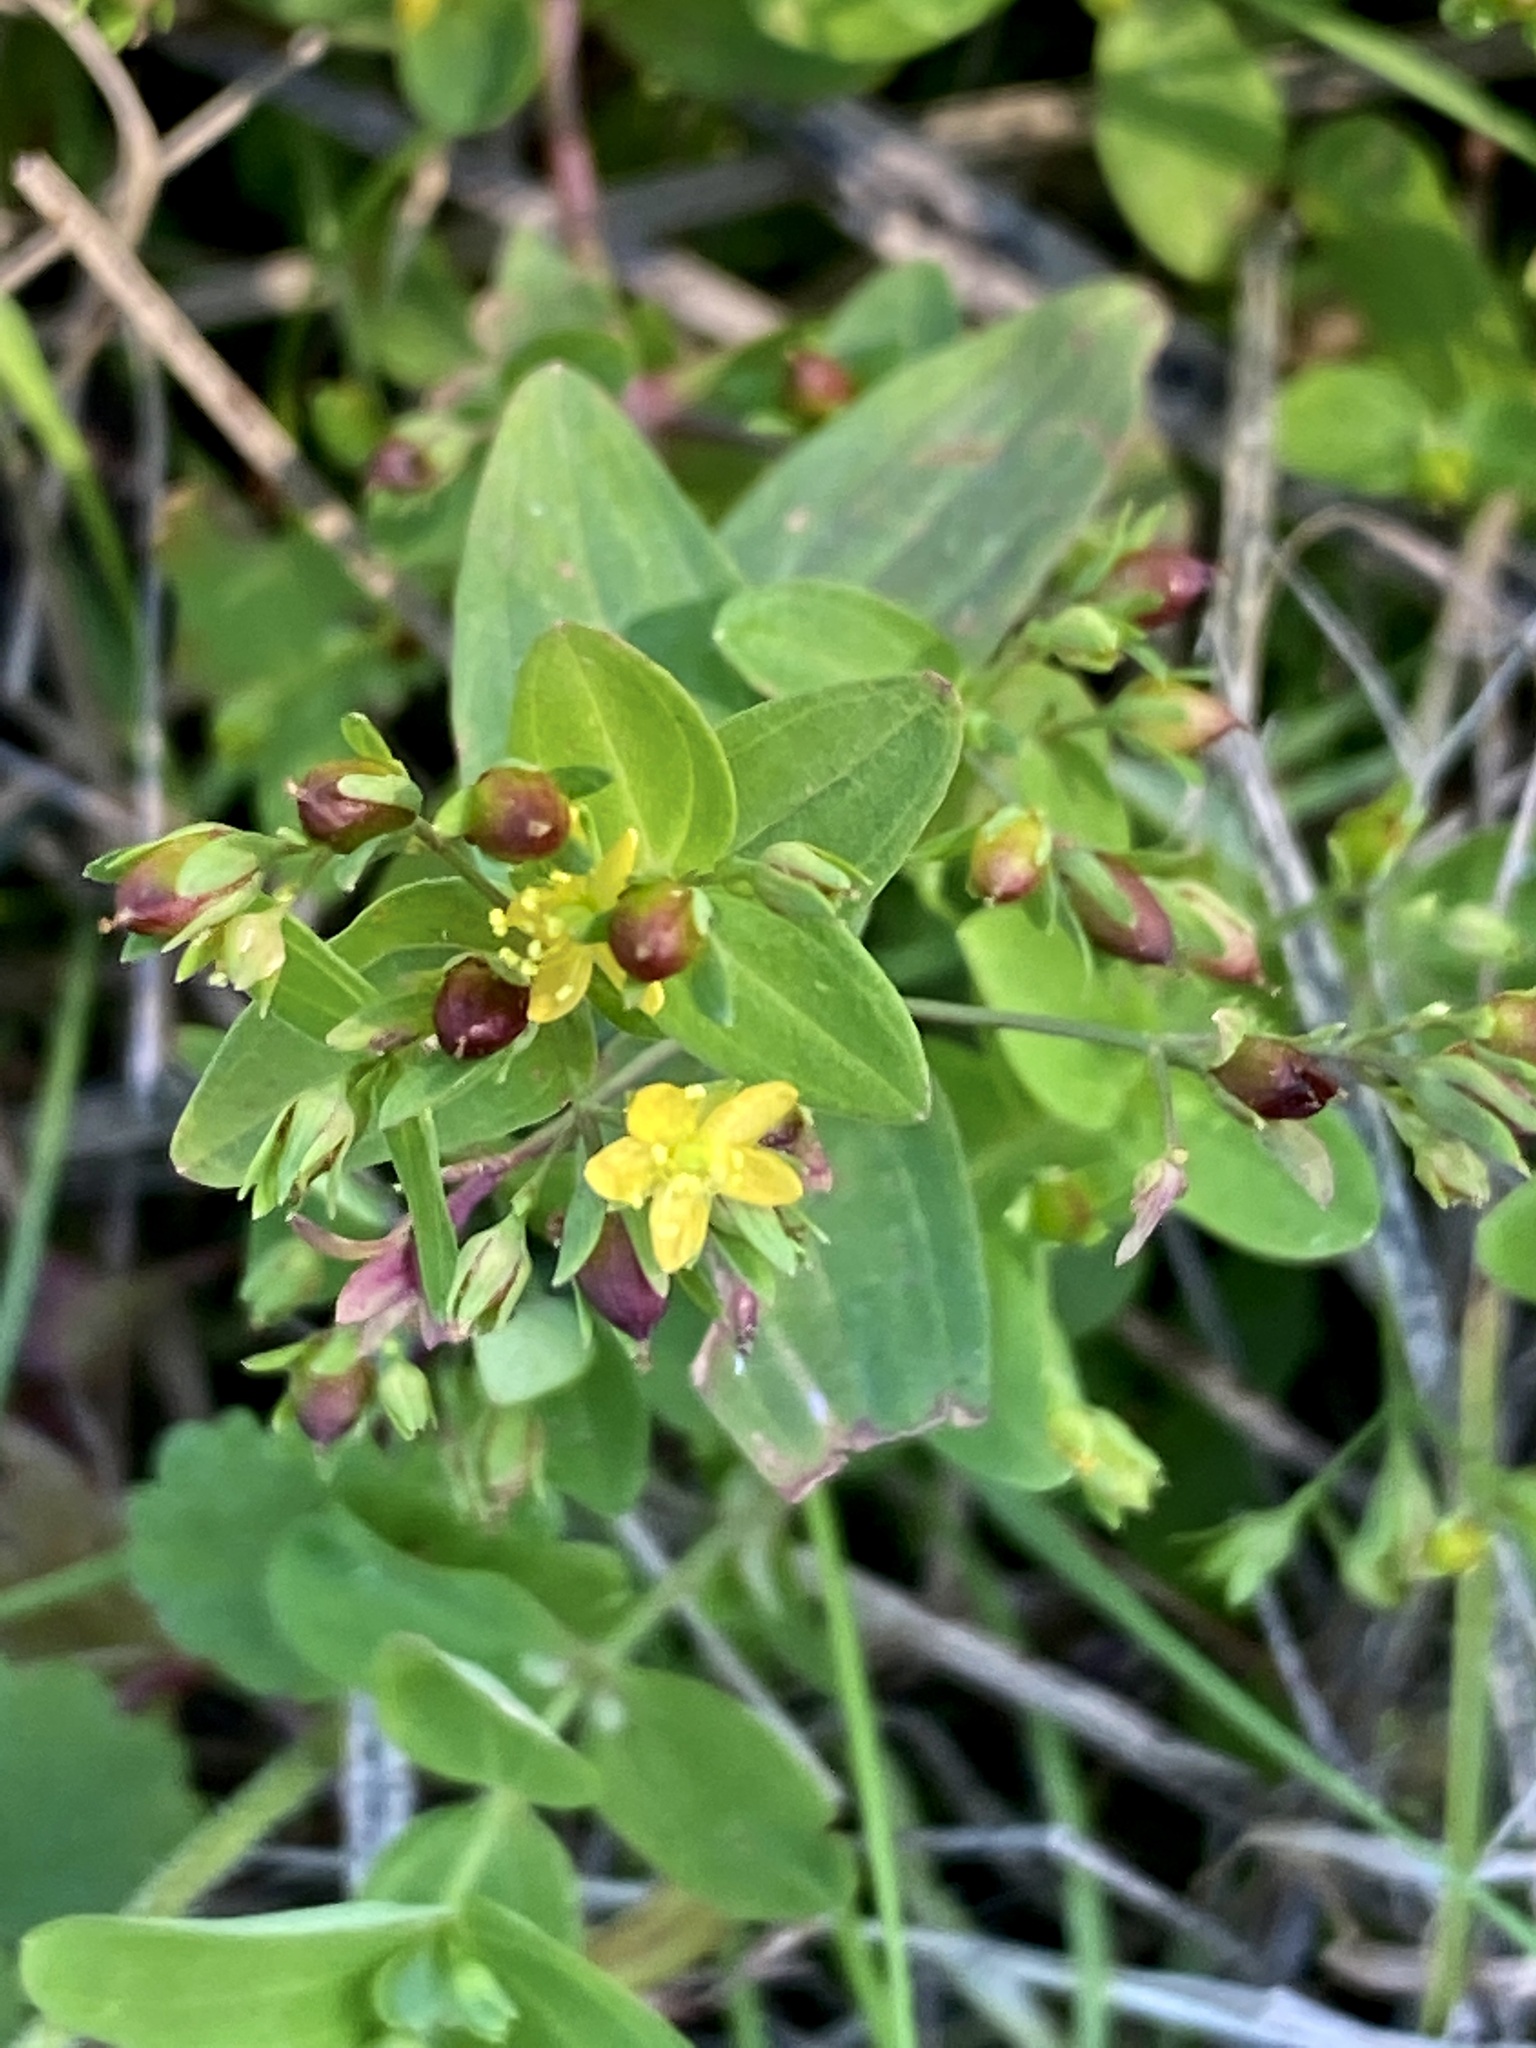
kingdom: Plantae
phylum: Tracheophyta
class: Magnoliopsida
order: Malpighiales
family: Hypericaceae
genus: Hypericum
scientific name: Hypericum mutilum
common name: Dwarf st. john's-wort
